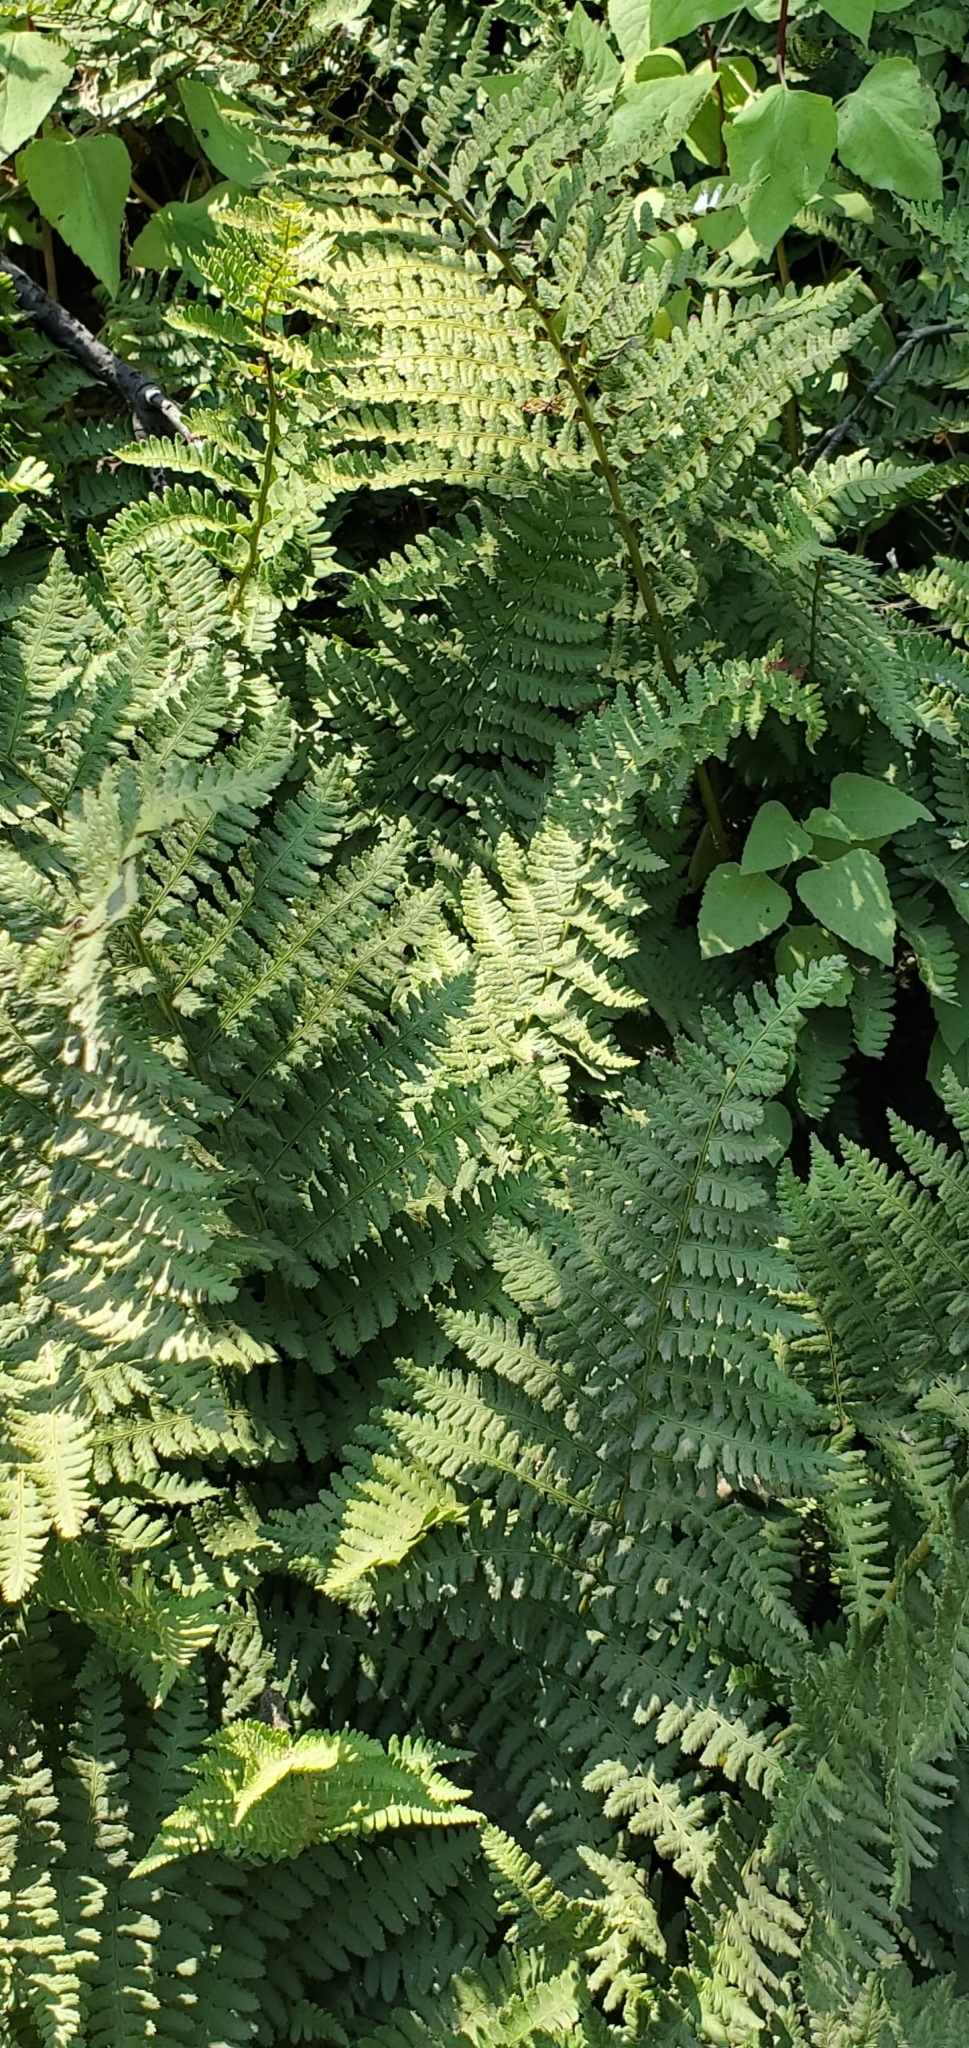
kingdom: Plantae
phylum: Tracheophyta
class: Polypodiopsida
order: Polypodiales
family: Dryopteridaceae
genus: Dryopteris
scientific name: Dryopteris arguta
